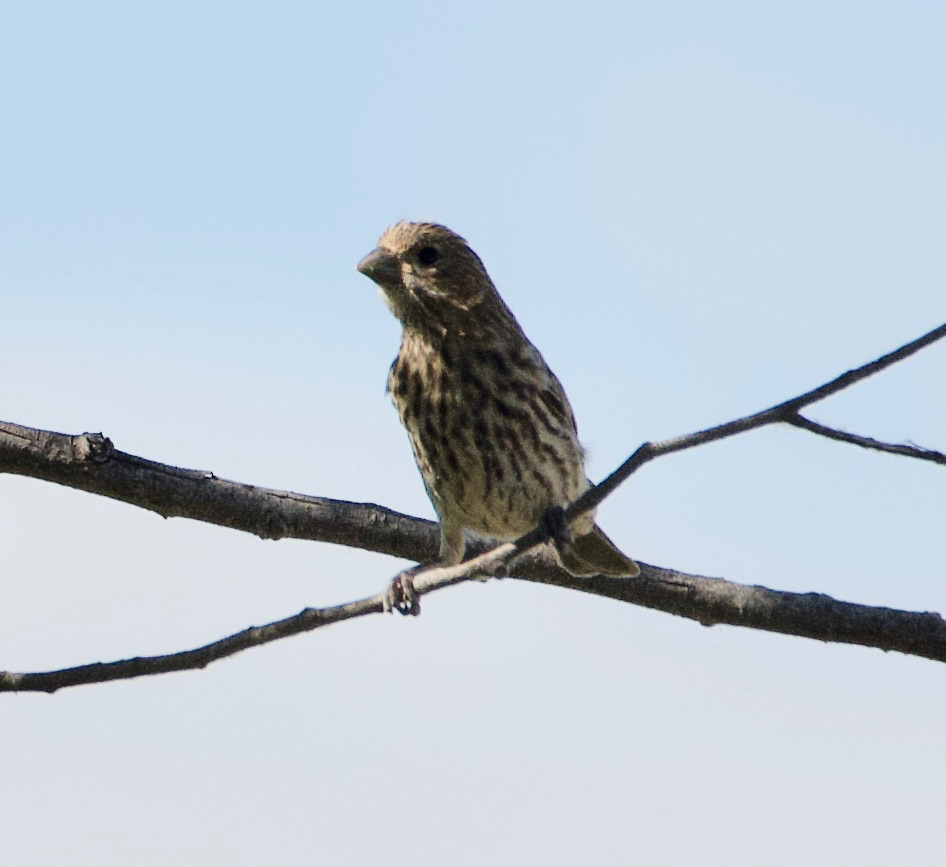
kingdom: Animalia
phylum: Chordata
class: Aves
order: Passeriformes
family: Fringillidae
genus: Haemorhous
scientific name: Haemorhous mexicanus
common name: House finch
